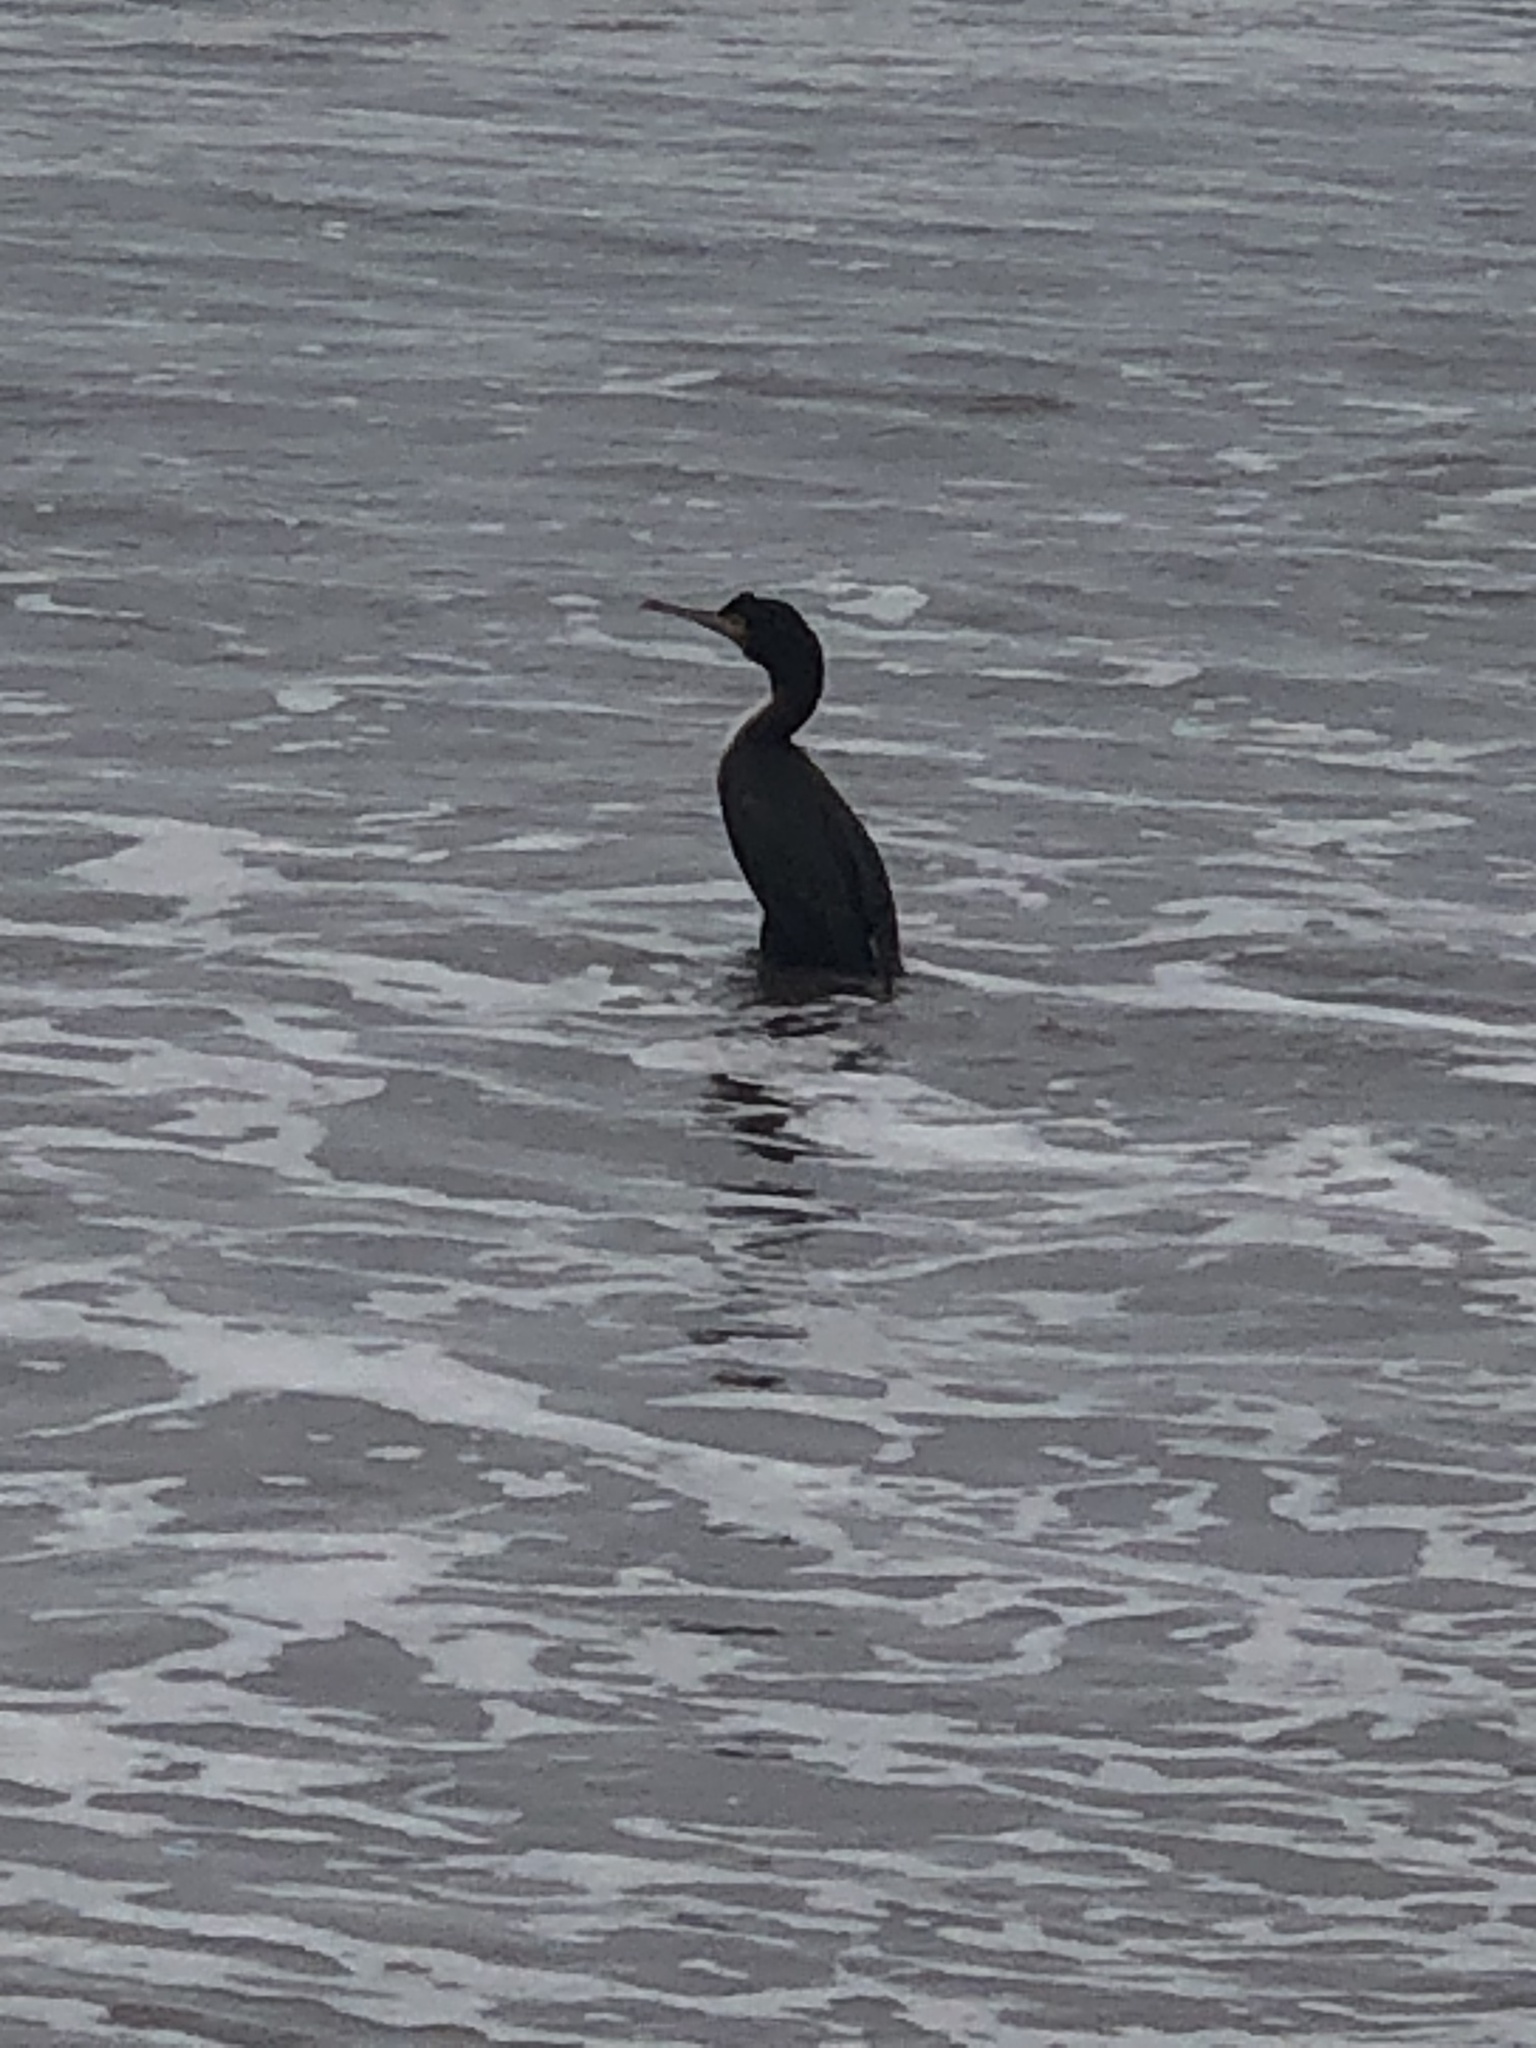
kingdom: Animalia
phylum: Chordata
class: Aves
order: Suliformes
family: Phalacrocoracidae
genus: Leucocarbo
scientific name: Leucocarbo bougainvillii
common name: Guanay cormorant
